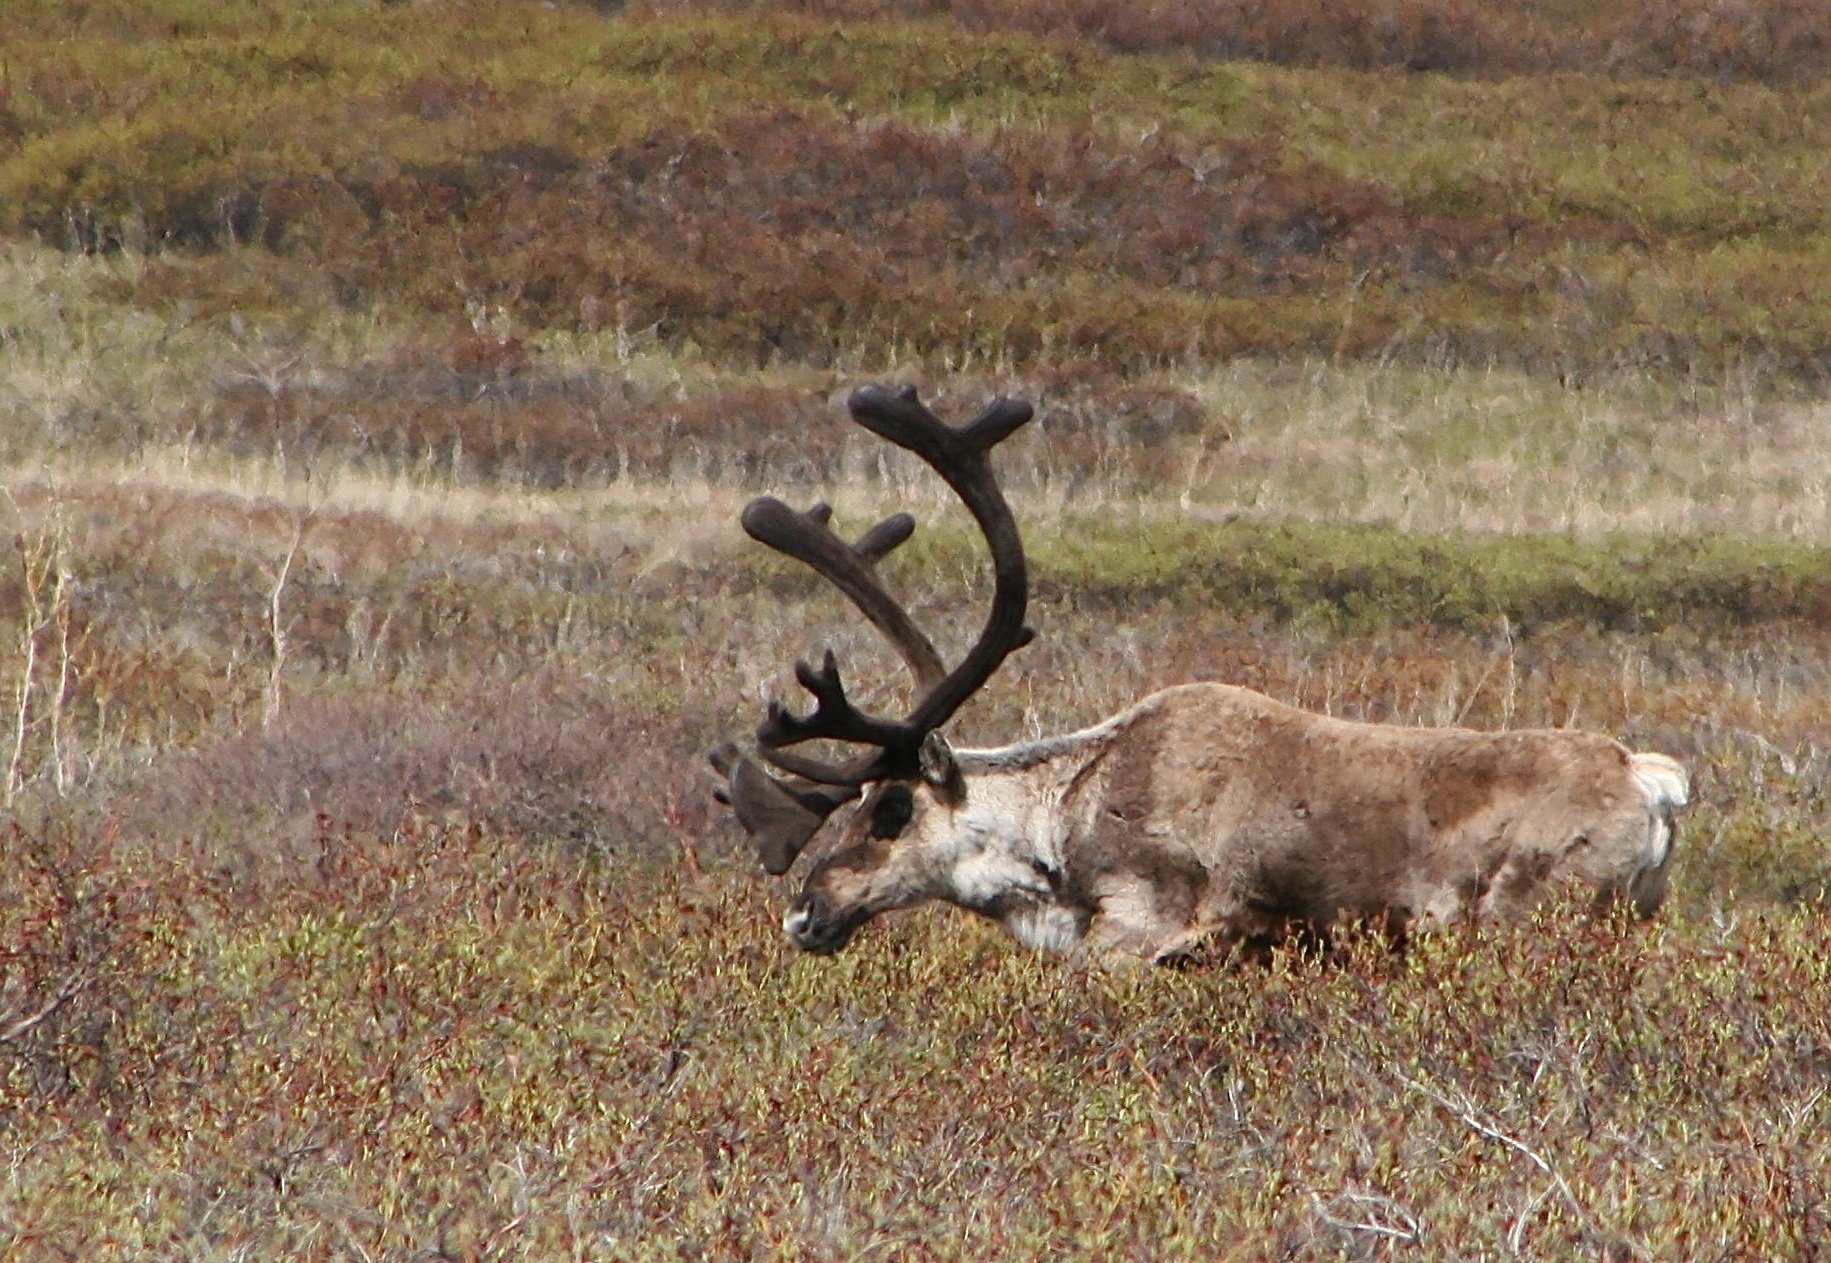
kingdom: Animalia
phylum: Chordata
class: Mammalia
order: Artiodactyla
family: Cervidae
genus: Rangifer
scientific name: Rangifer tarandus
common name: Reindeer
